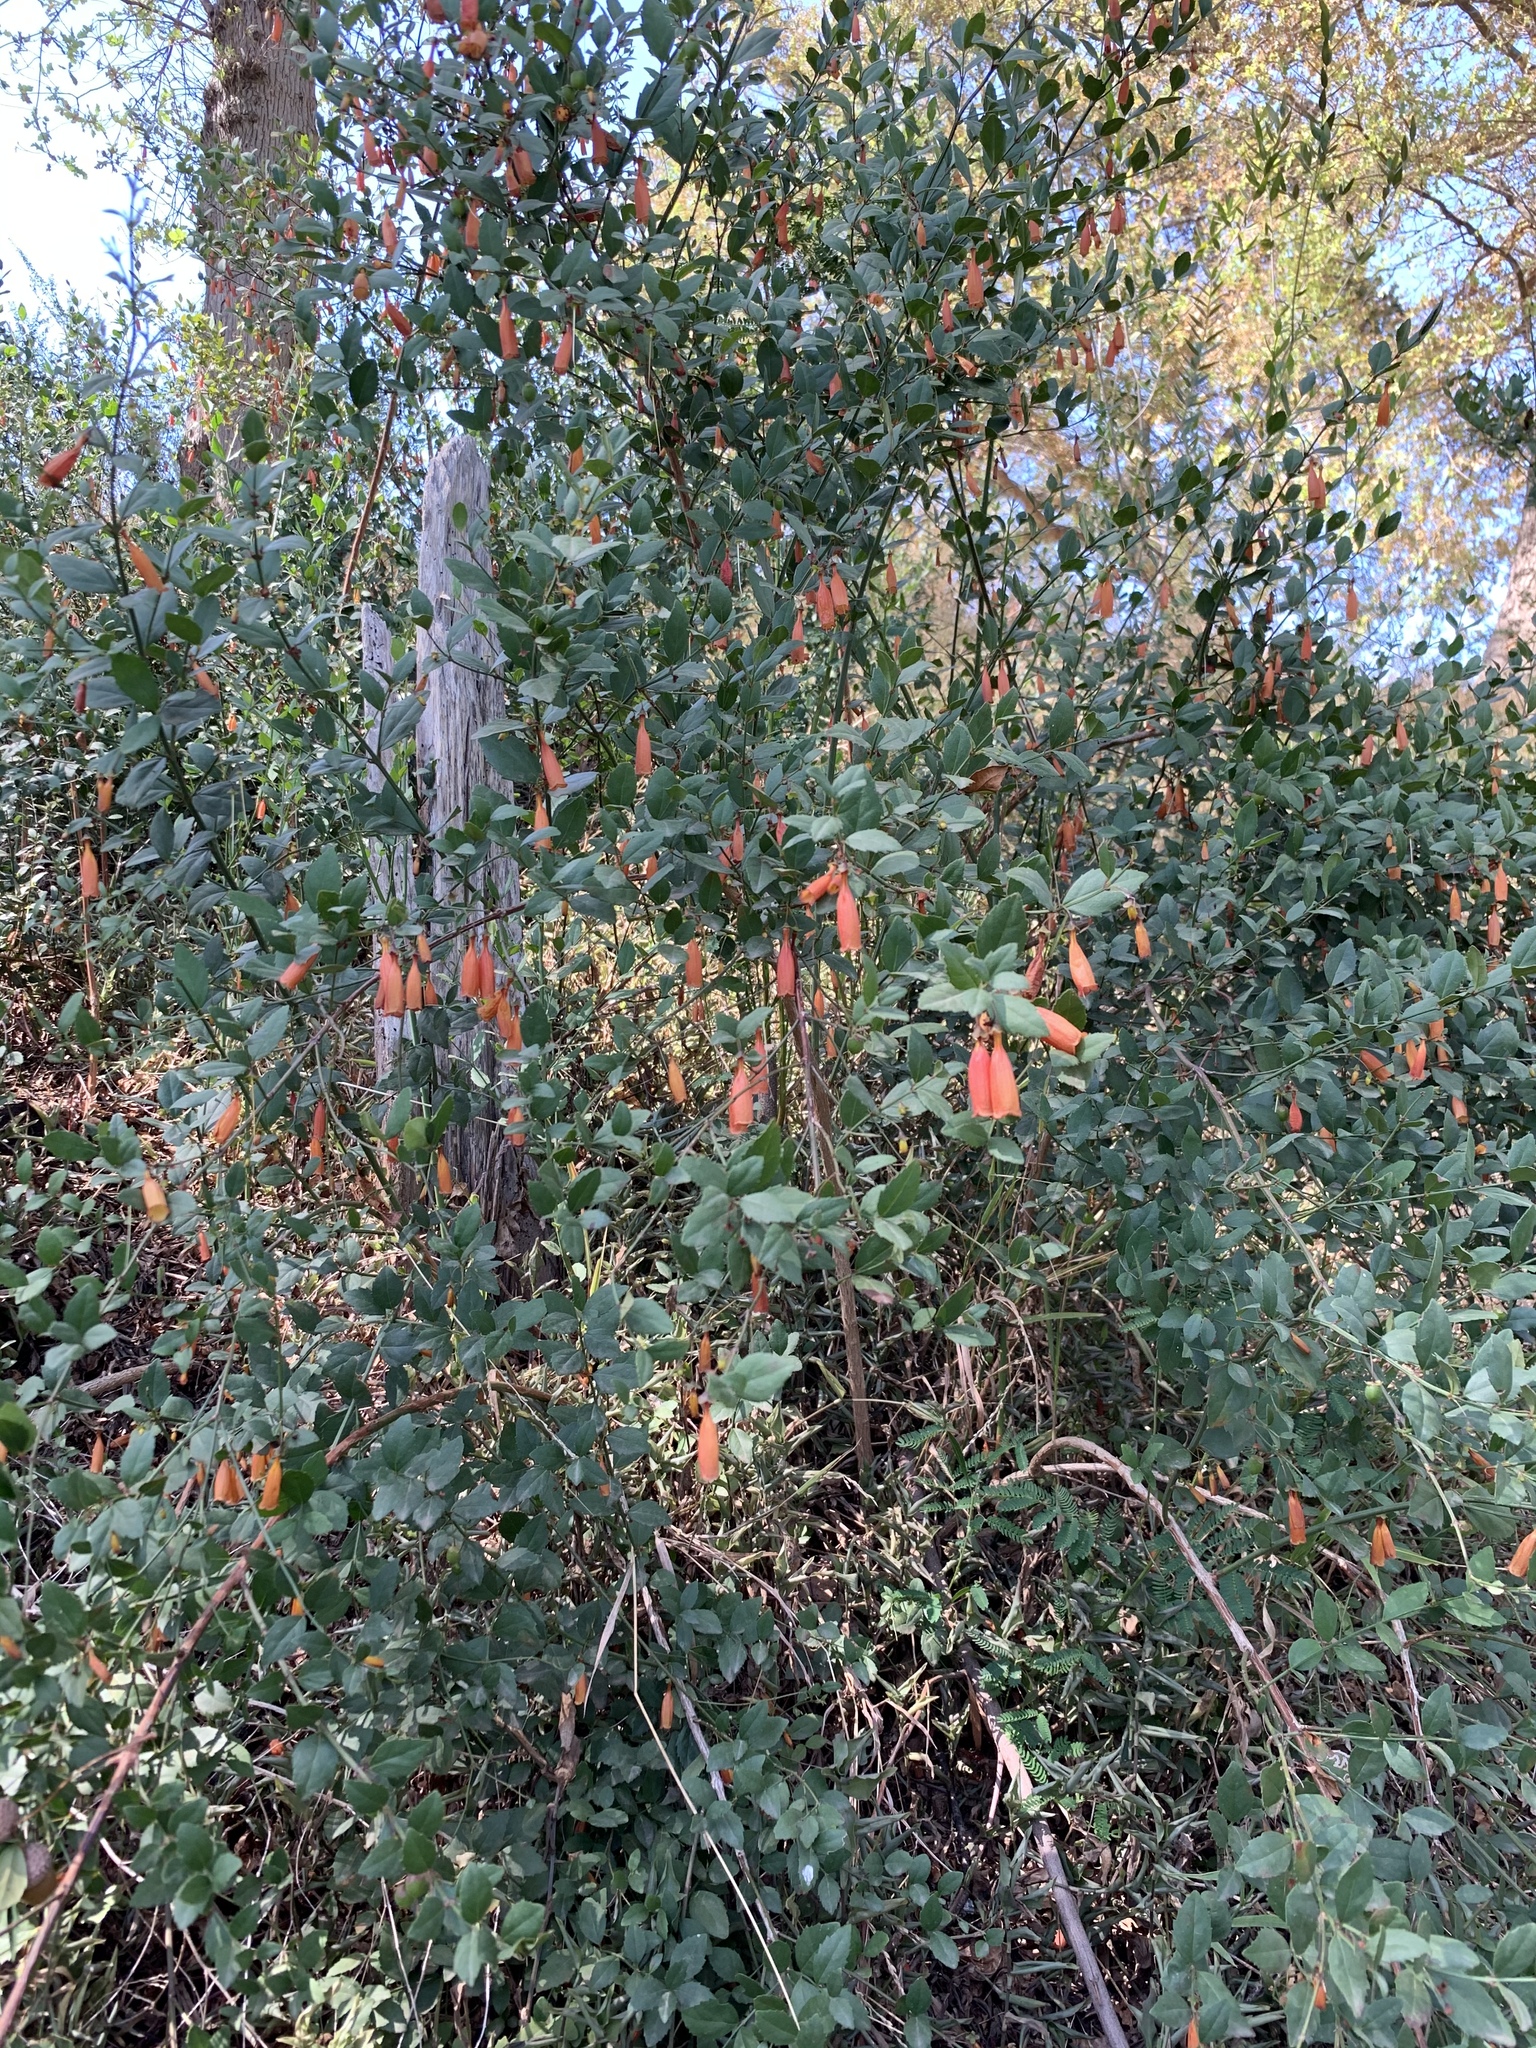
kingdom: Plantae
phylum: Tracheophyta
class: Magnoliopsida
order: Lamiales
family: Stilbaceae
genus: Halleria
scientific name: Halleria elliptica
